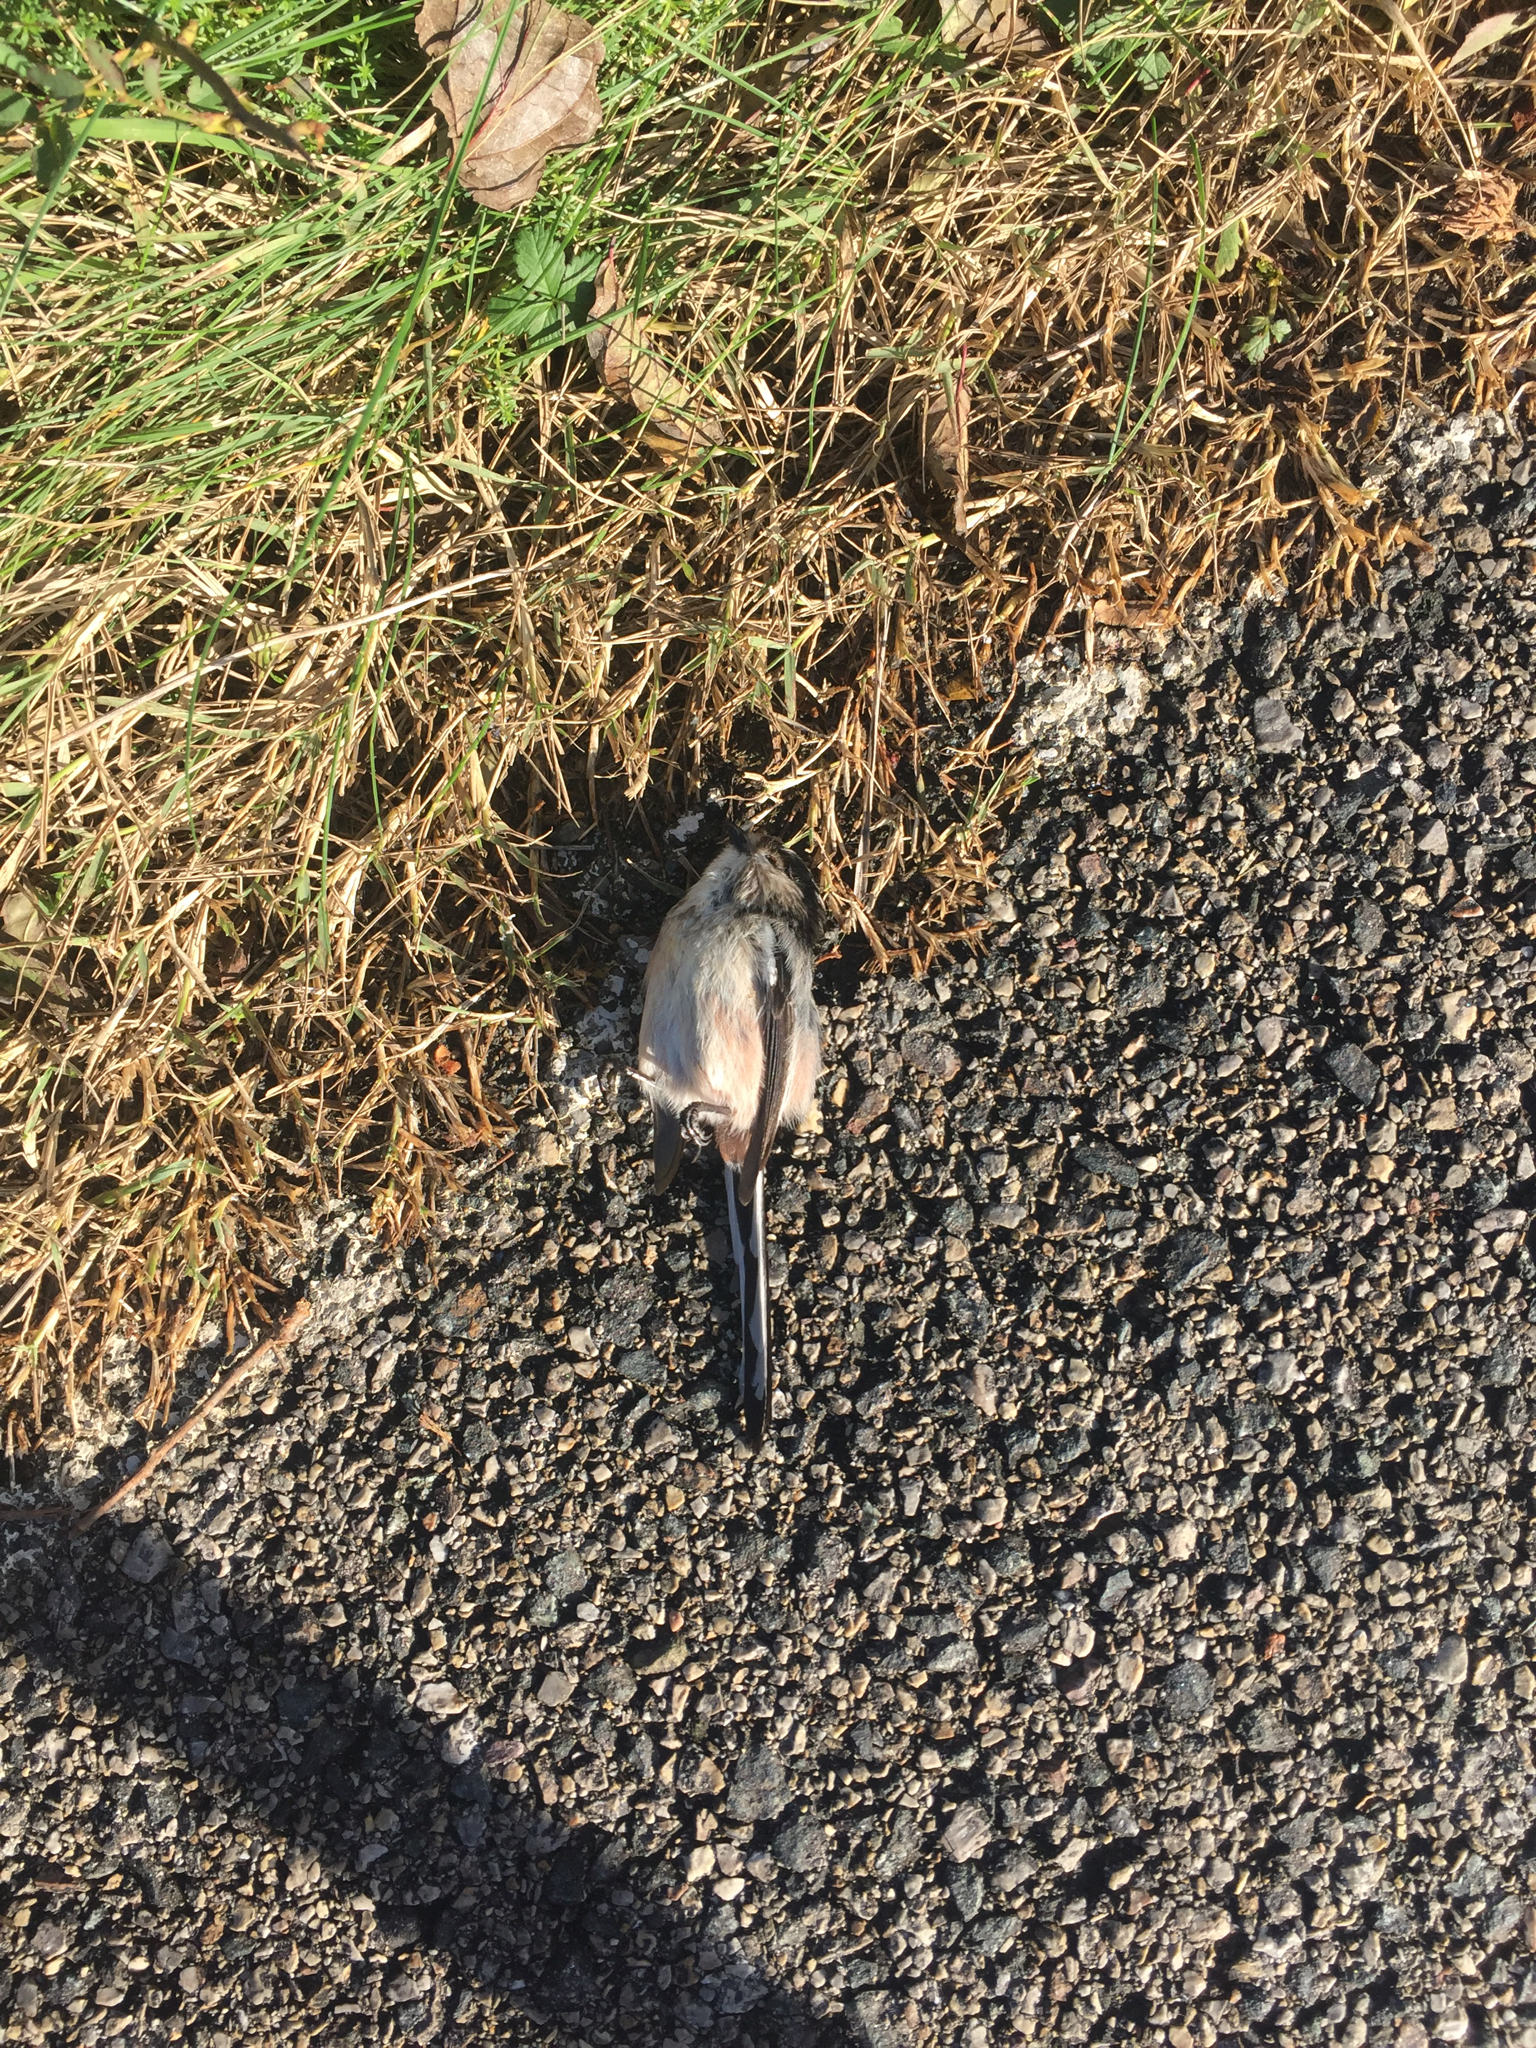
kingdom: Animalia
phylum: Chordata
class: Aves
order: Passeriformes
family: Aegithalidae
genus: Aegithalos
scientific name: Aegithalos caudatus
